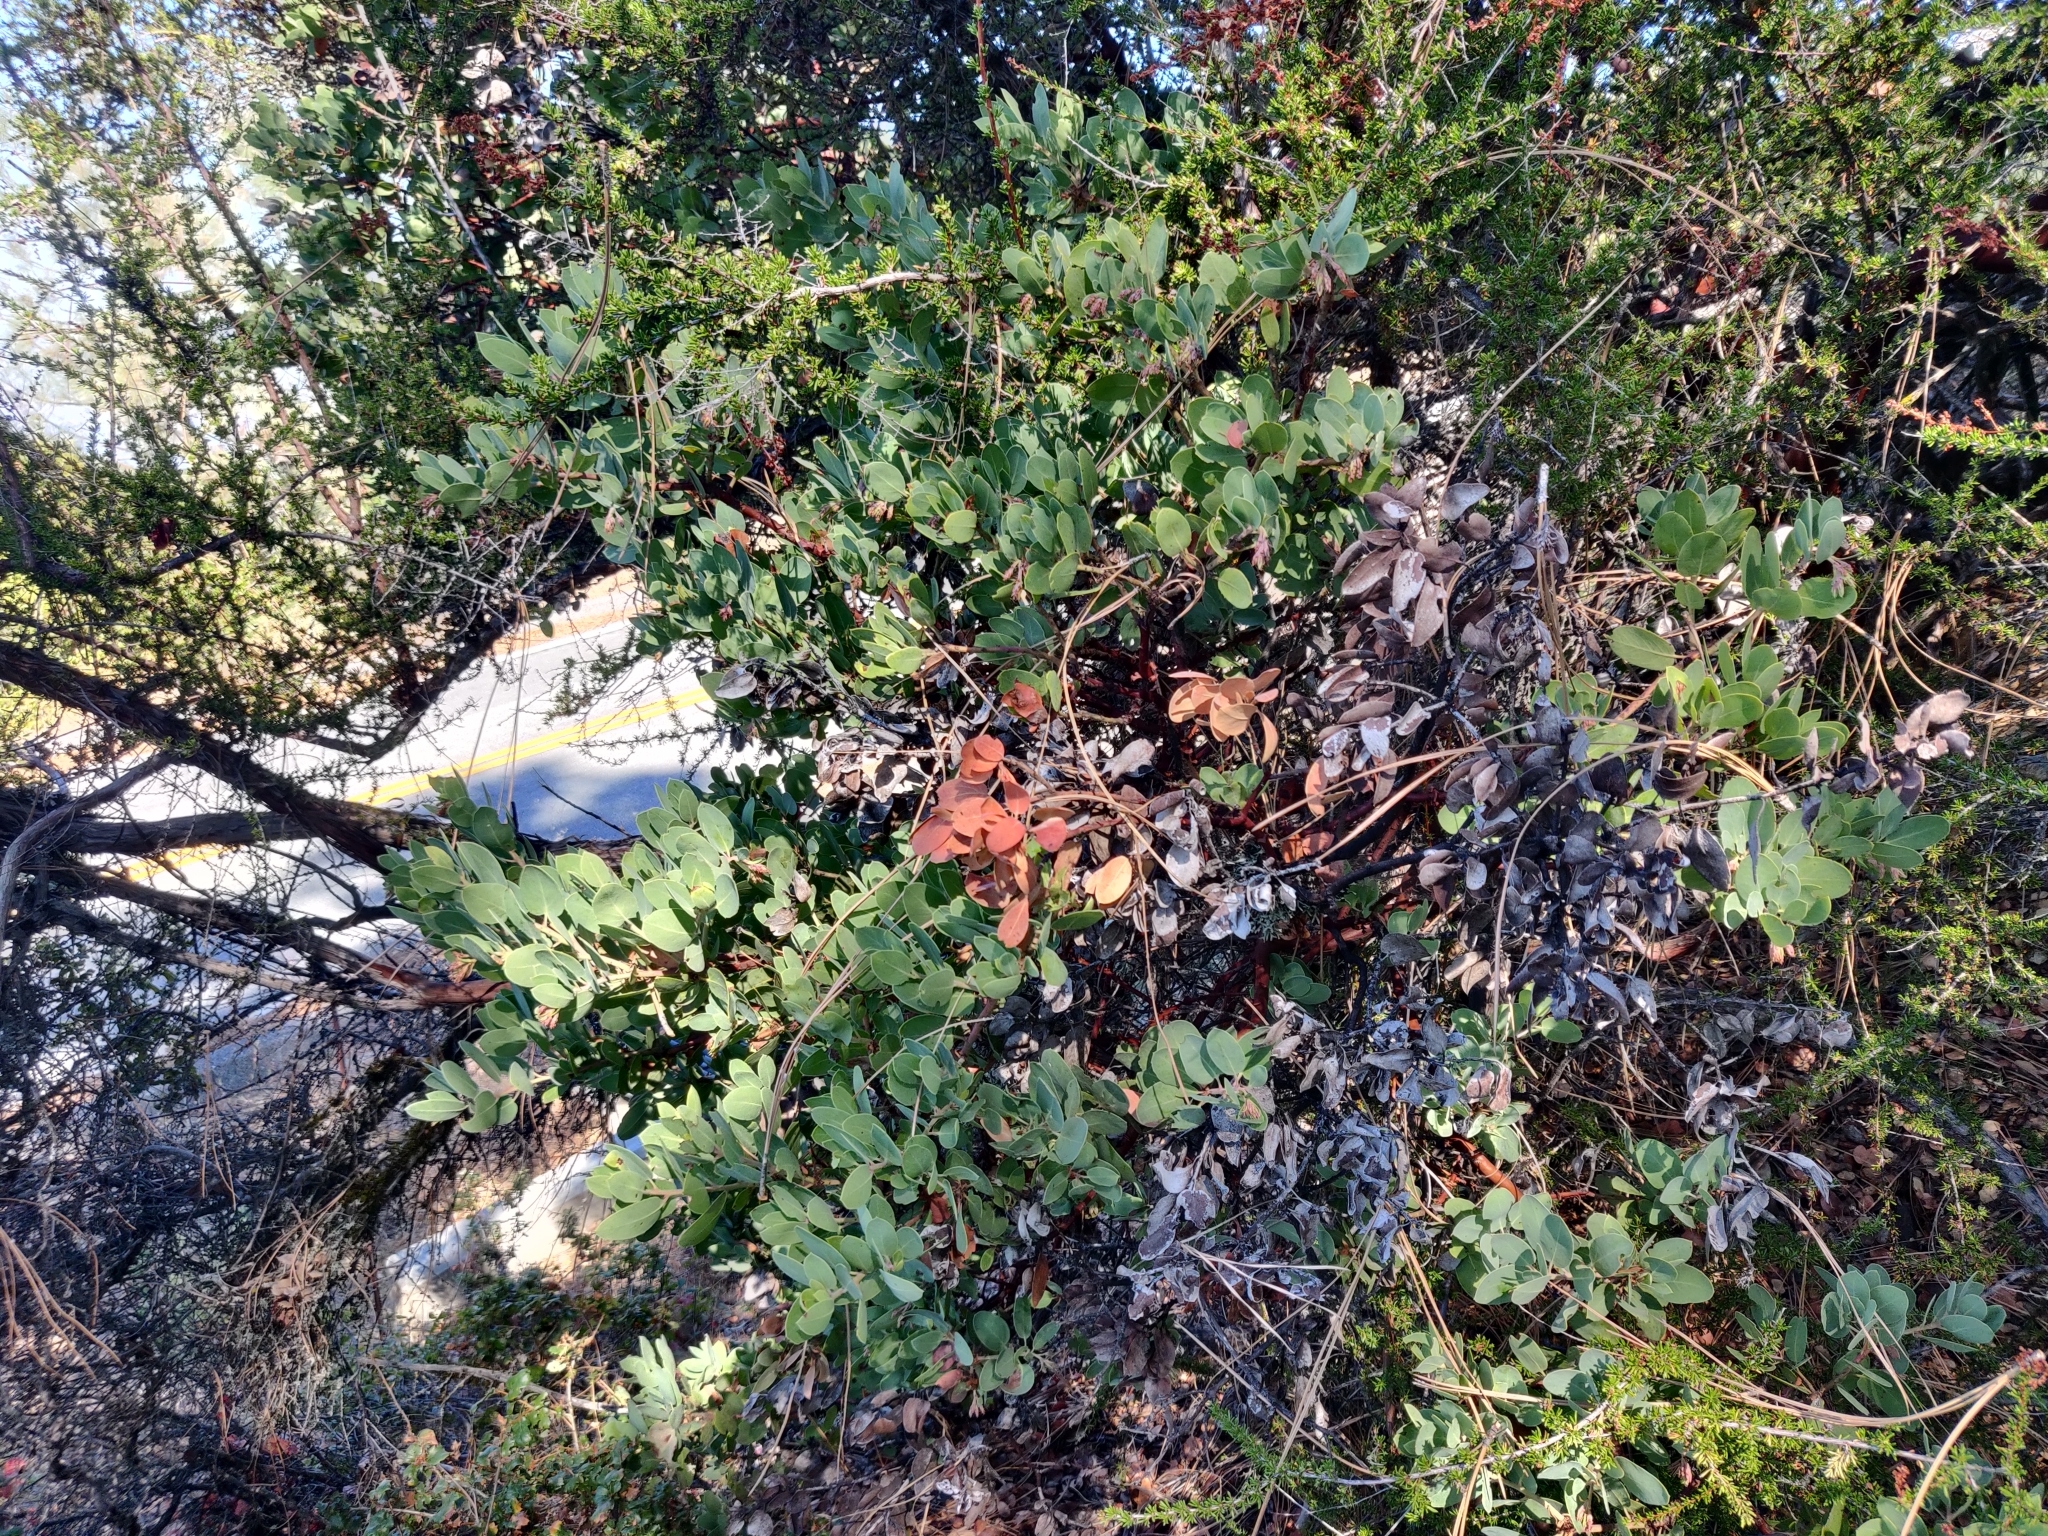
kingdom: Plantae
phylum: Tracheophyta
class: Magnoliopsida
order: Ericales
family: Ericaceae
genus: Arctostaphylos
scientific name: Arctostaphylos crustacea
